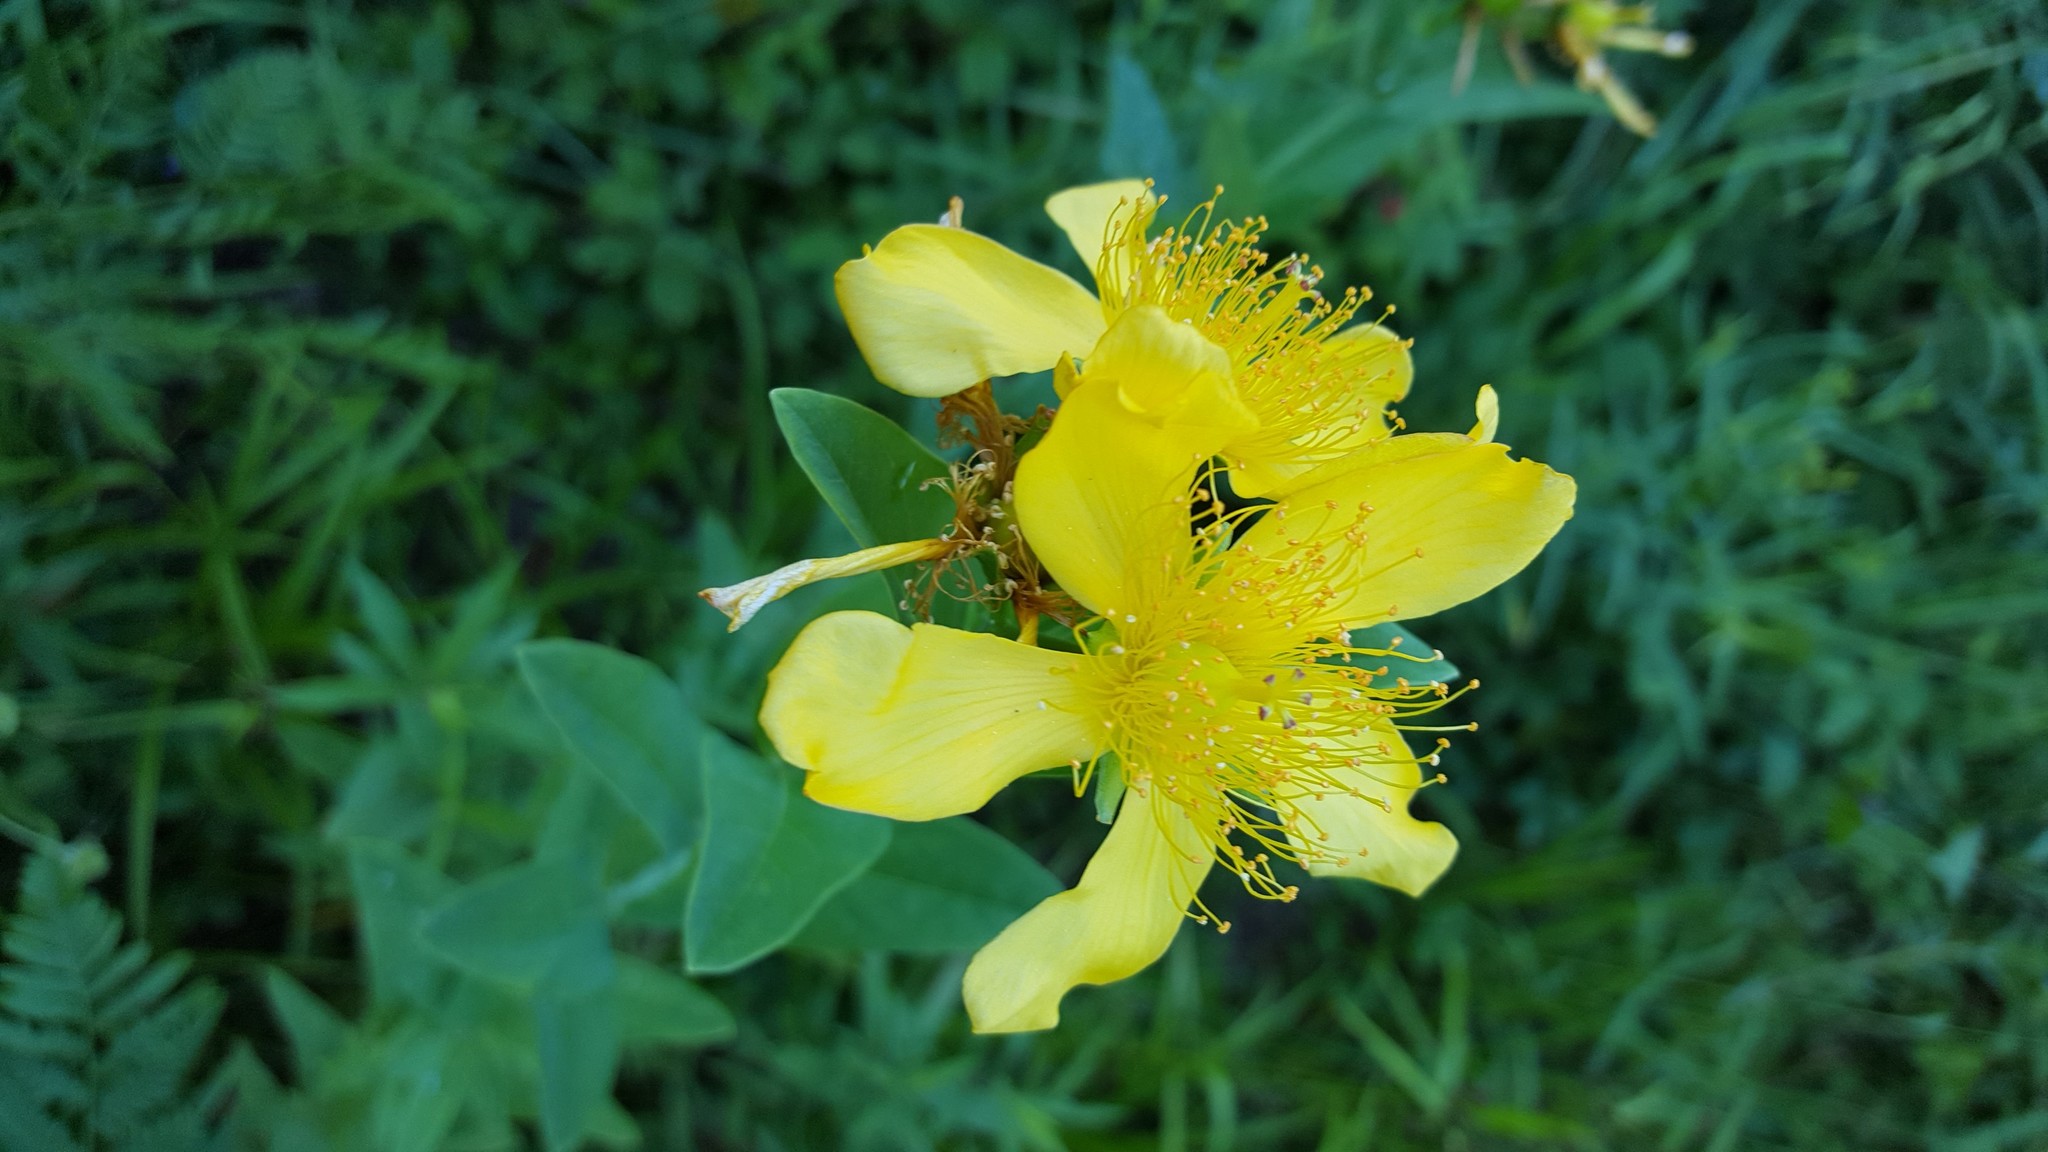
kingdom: Plantae
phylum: Tracheophyta
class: Magnoliopsida
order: Malpighiales
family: Hypericaceae
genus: Hypericum
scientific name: Hypericum ascyron
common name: Giant st. john's-wort
